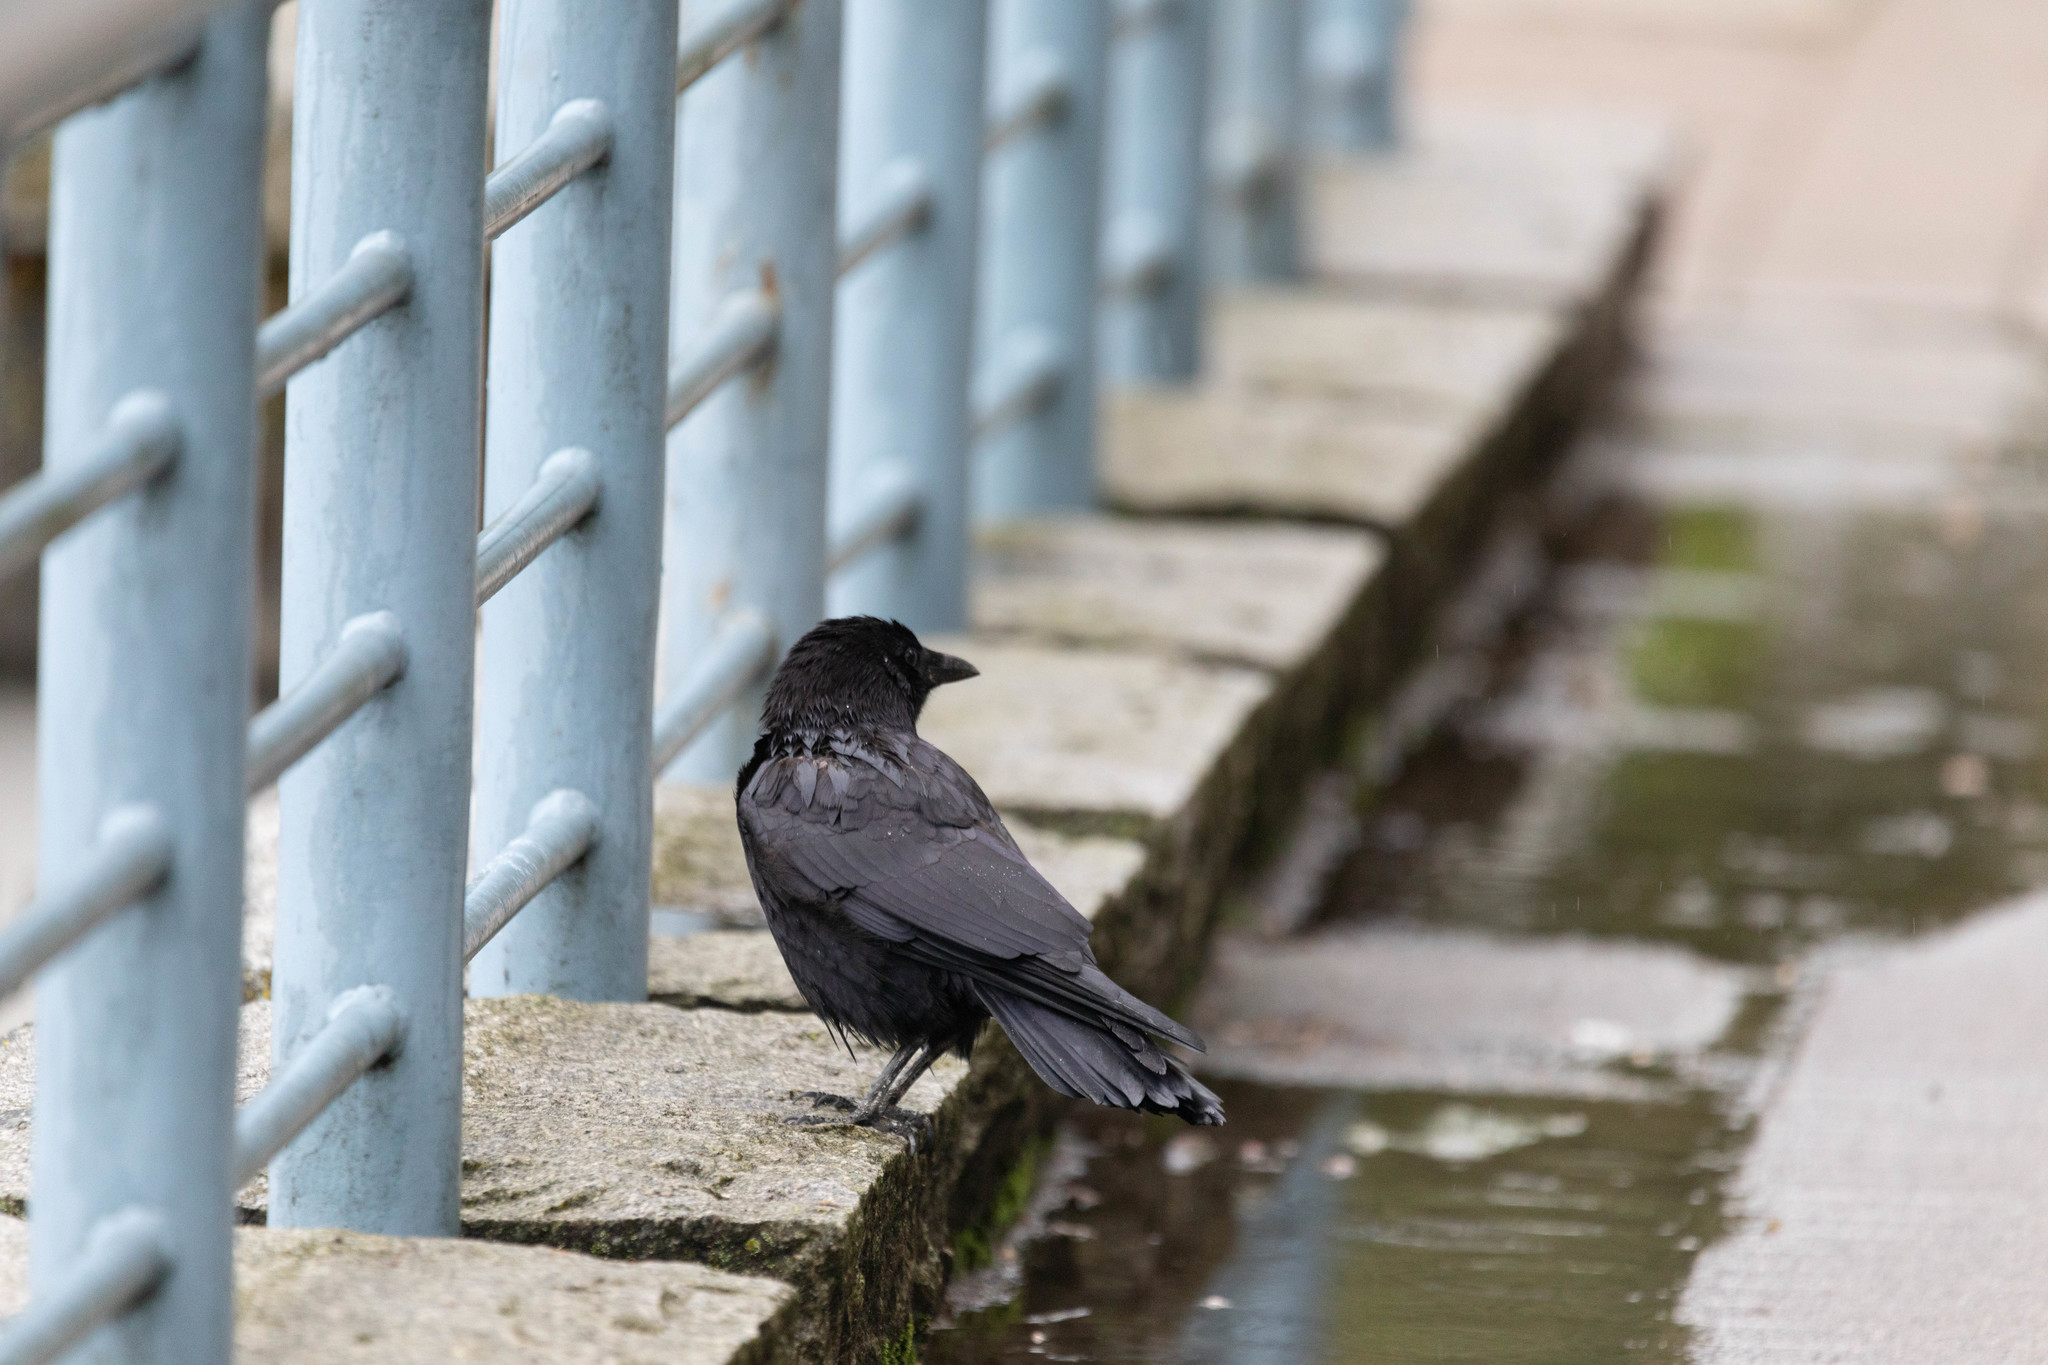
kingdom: Animalia
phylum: Chordata
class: Aves
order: Passeriformes
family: Corvidae
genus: Corvus
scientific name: Corvus brachyrhynchos
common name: American crow
